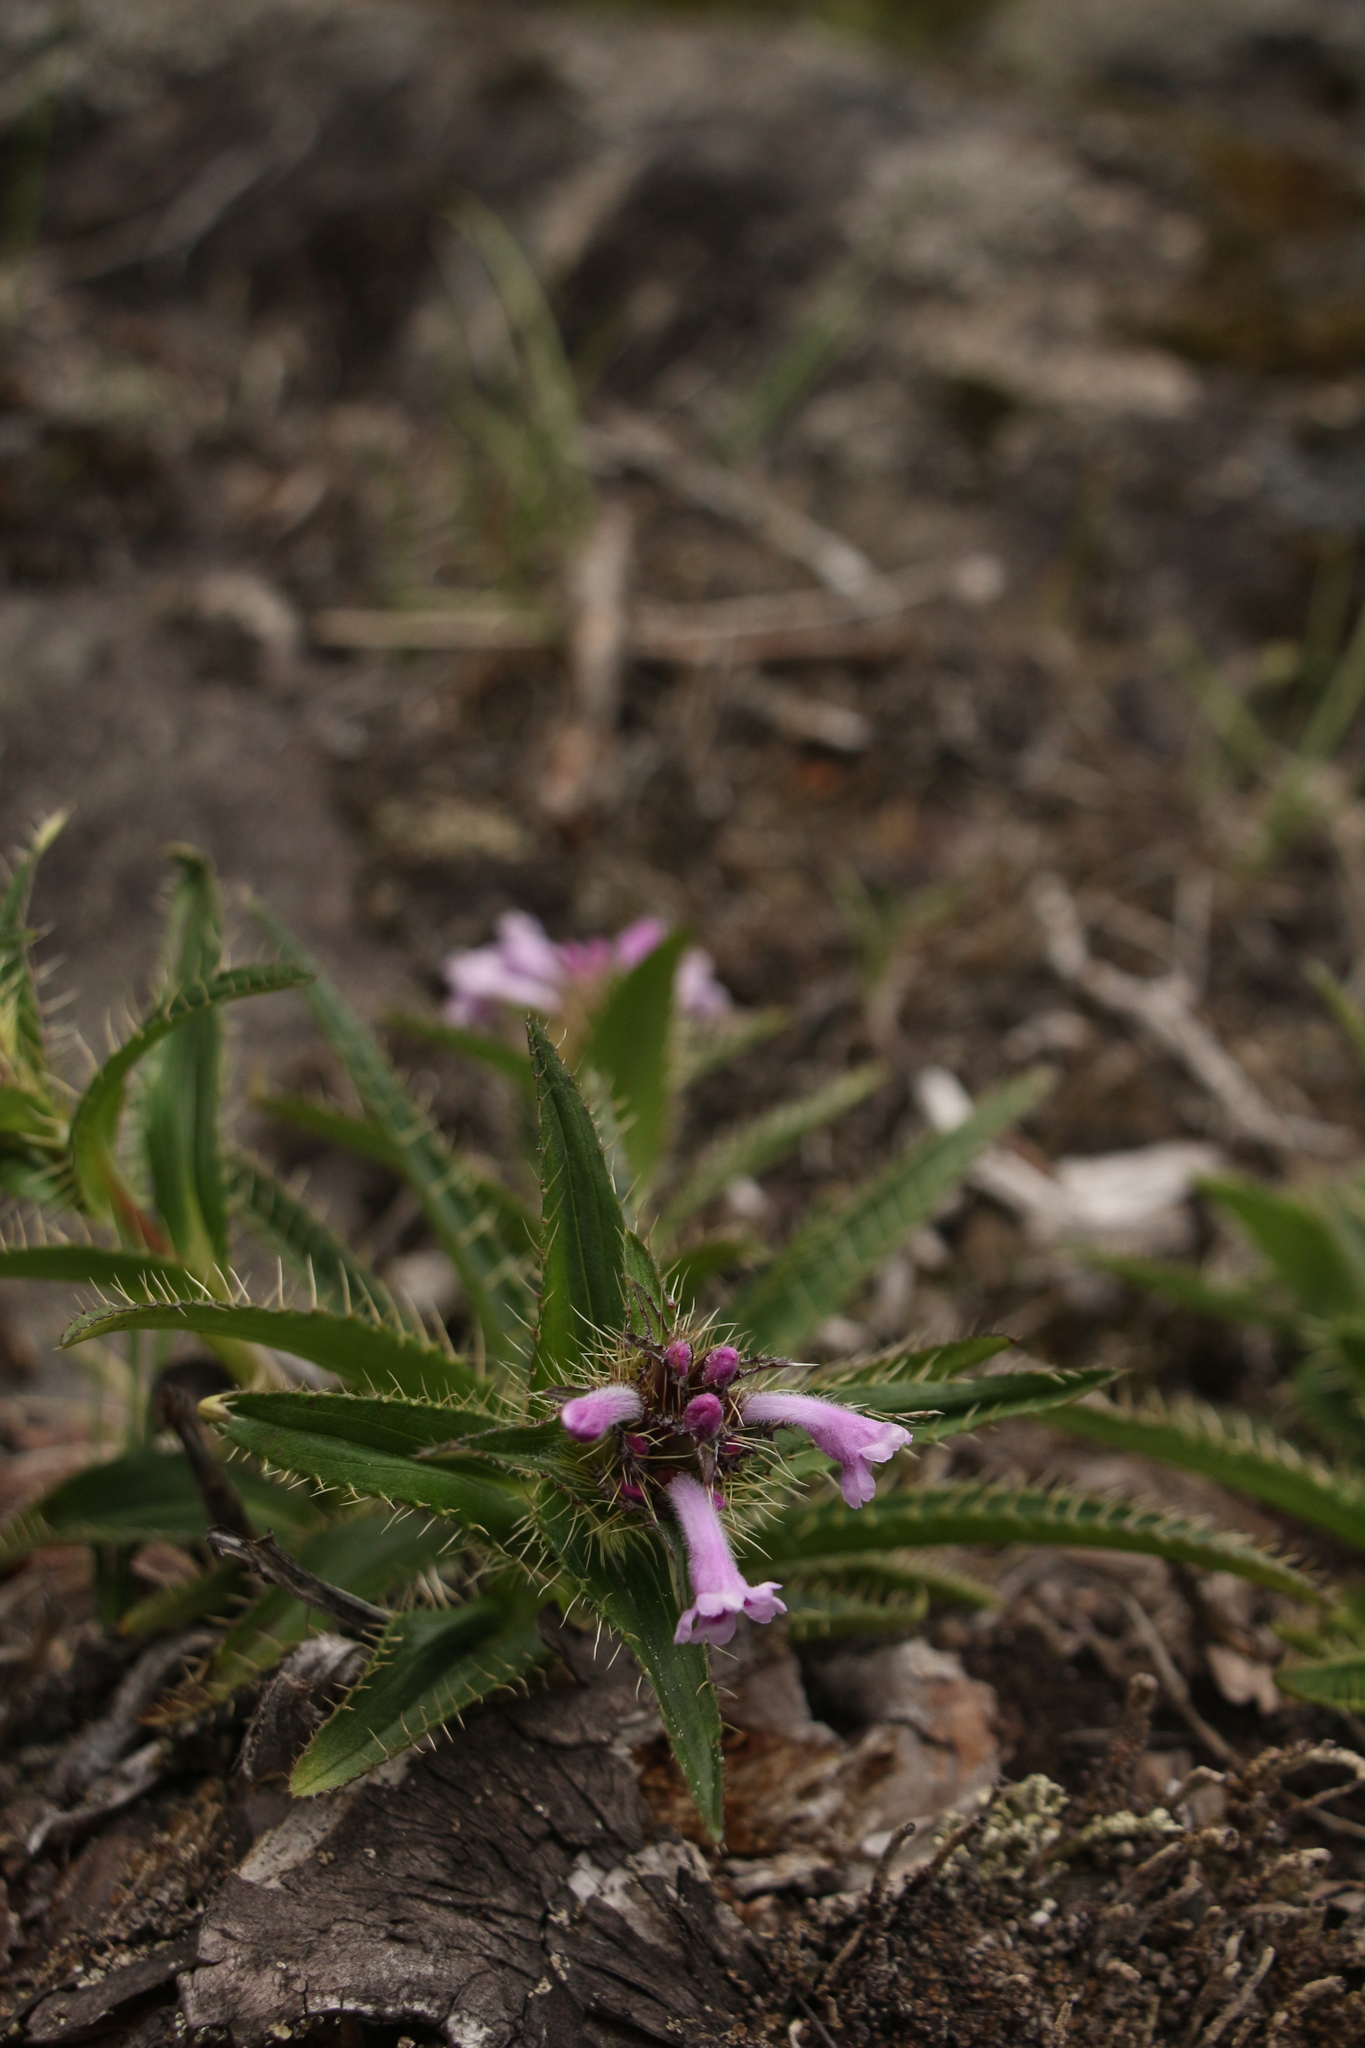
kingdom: Plantae
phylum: Tracheophyta
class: Magnoliopsida
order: Dipsacales
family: Caprifoliaceae
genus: Acanthocalyx
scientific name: Acanthocalyx nepalensis
